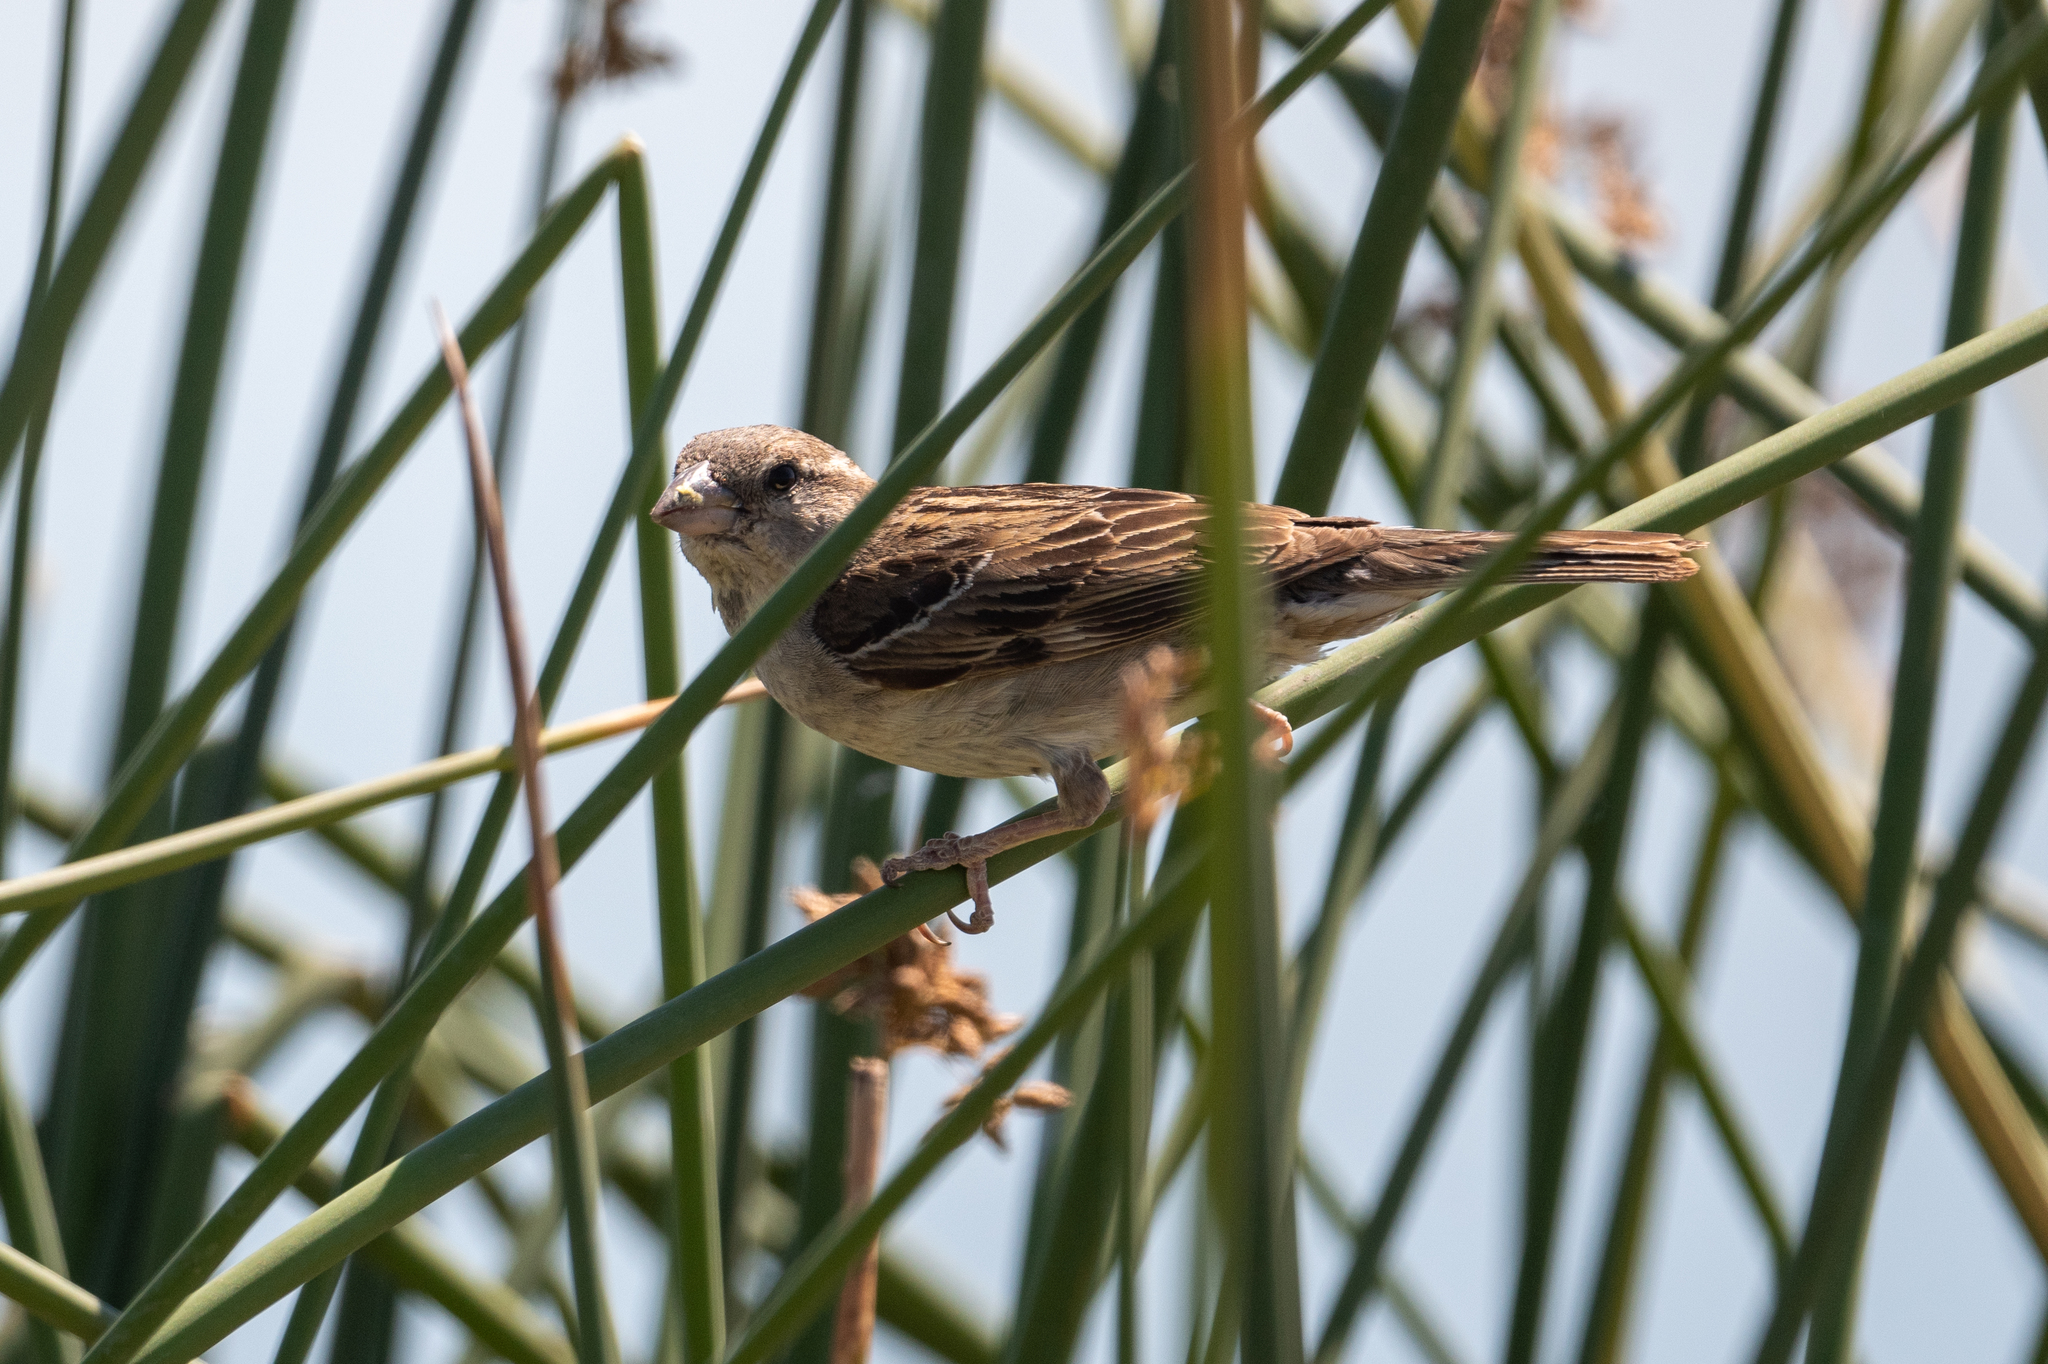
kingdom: Animalia
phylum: Chordata
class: Aves
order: Passeriformes
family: Passeridae
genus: Passer
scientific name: Passer domesticus
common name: House sparrow
